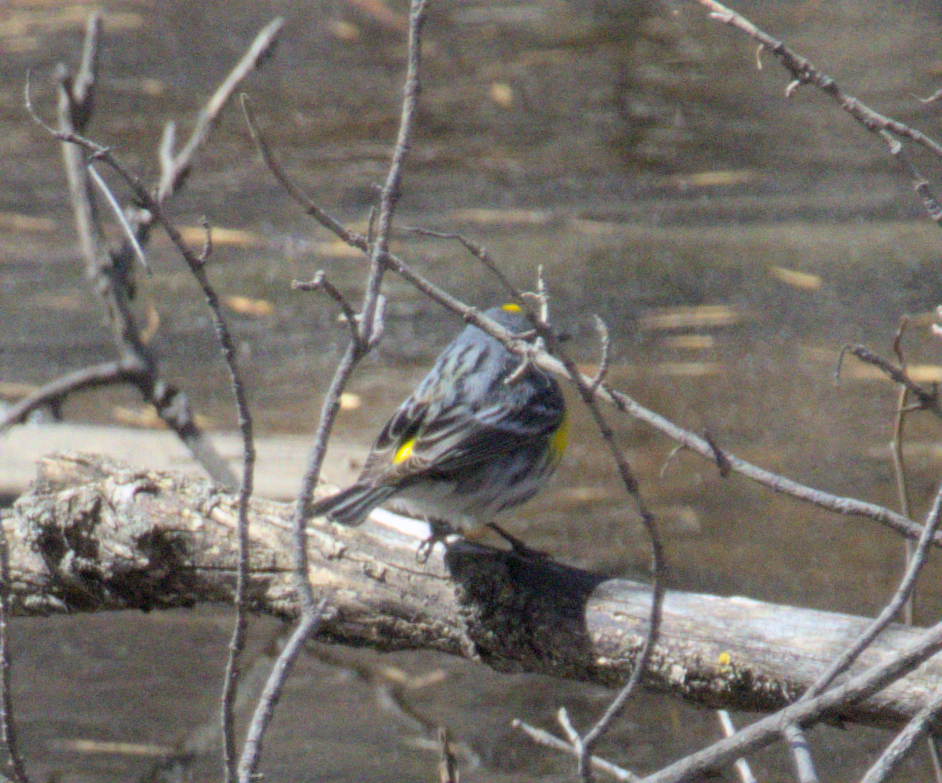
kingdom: Animalia
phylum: Chordata
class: Aves
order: Passeriformes
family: Parulidae
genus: Setophaga
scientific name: Setophaga coronata
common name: Myrtle warbler
